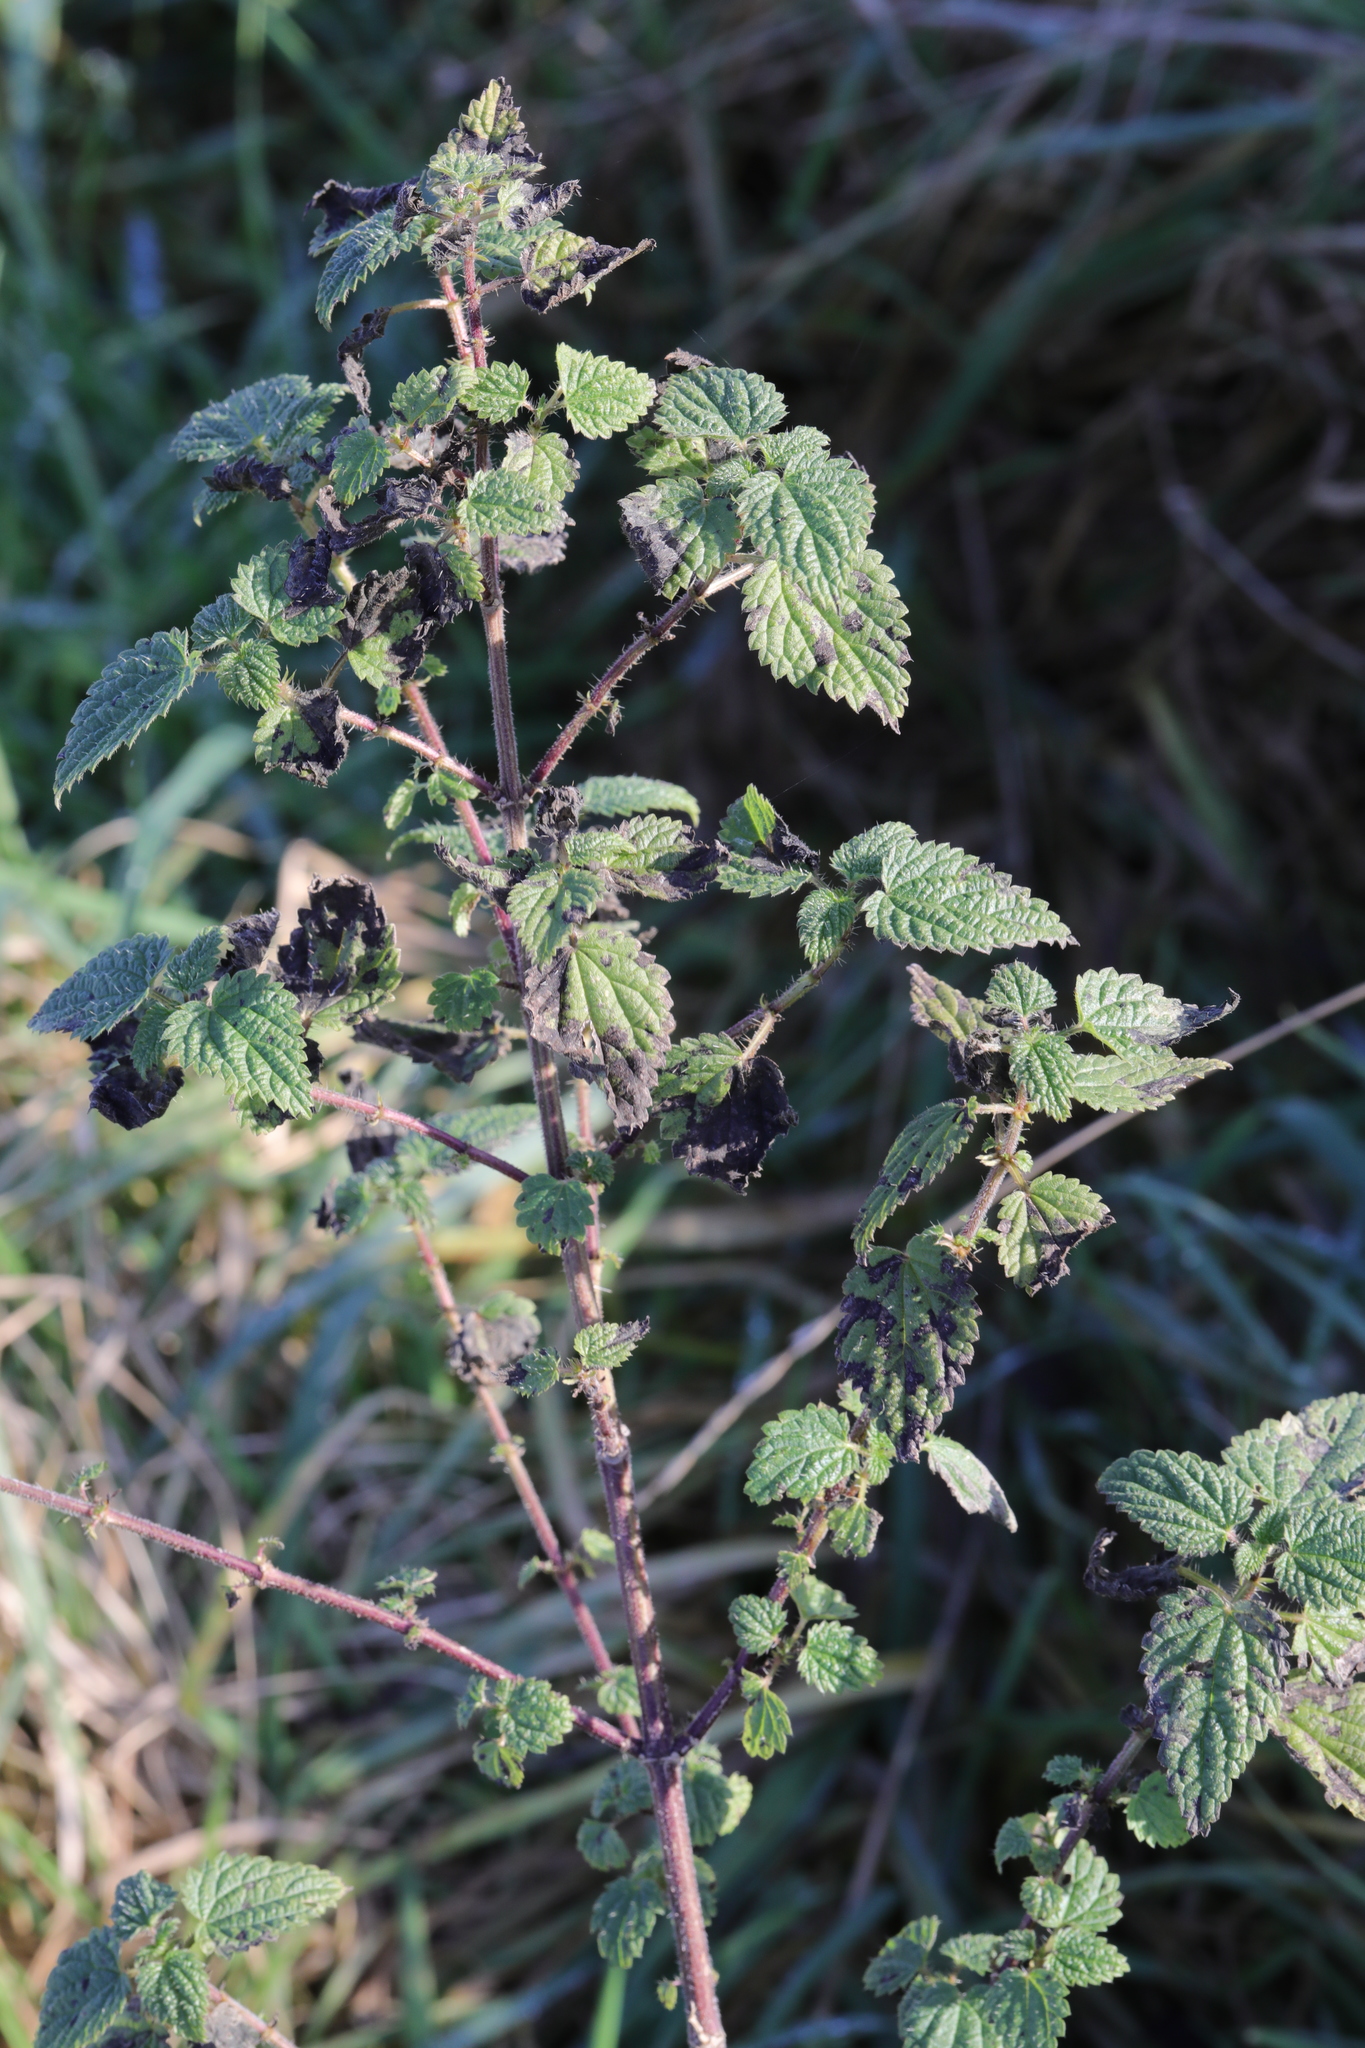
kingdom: Plantae
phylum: Tracheophyta
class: Magnoliopsida
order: Rosales
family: Urticaceae
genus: Urtica
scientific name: Urtica dioica
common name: Common nettle
